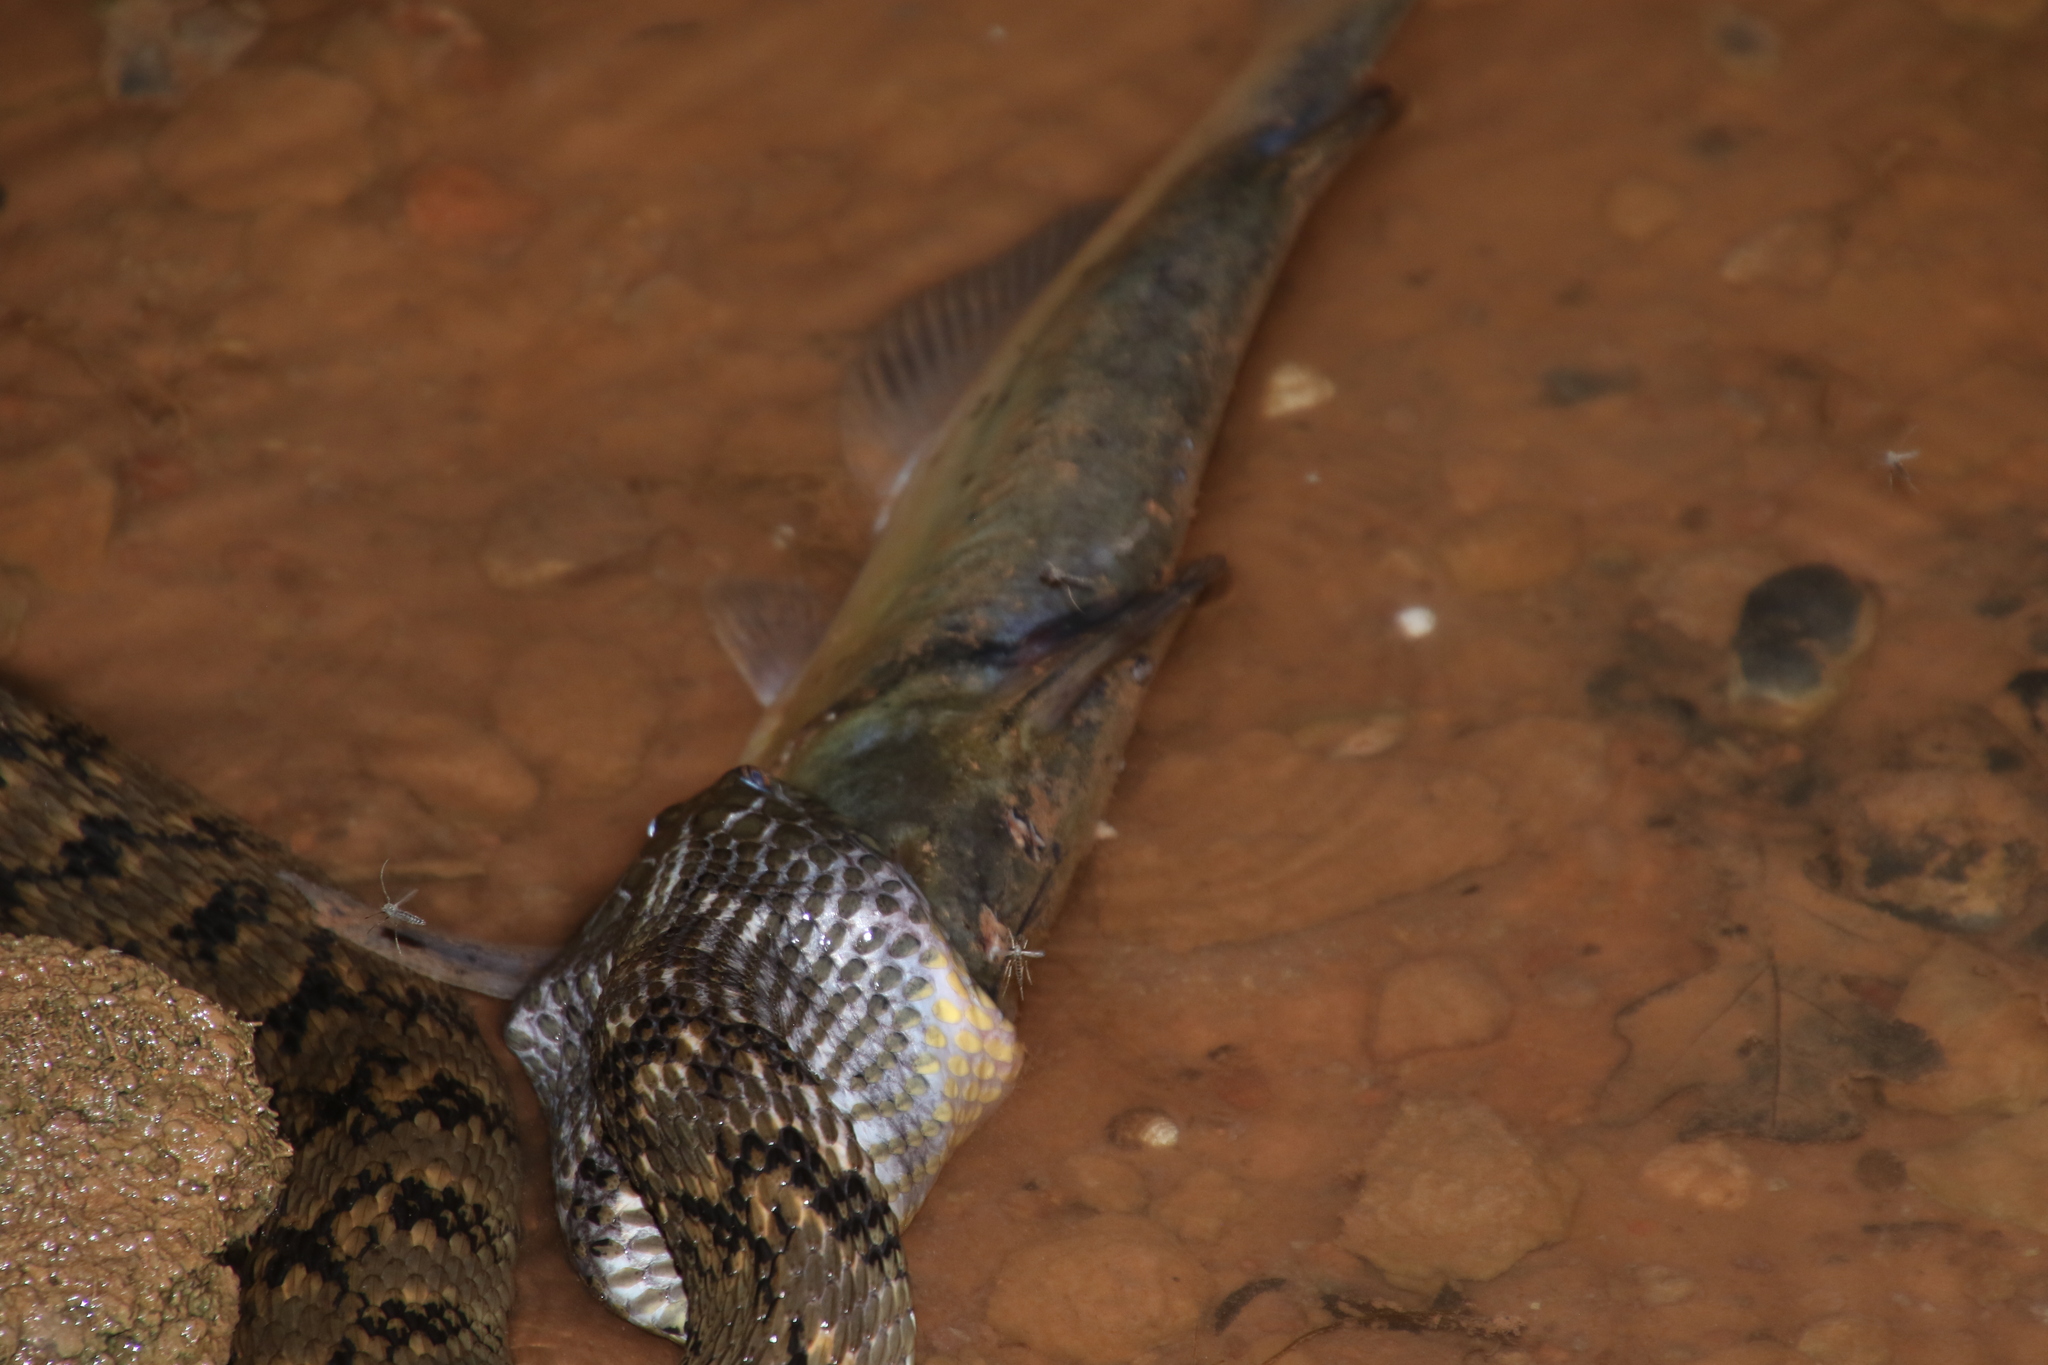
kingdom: Animalia
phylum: Chordata
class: Squamata
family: Colubridae
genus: Nerodia
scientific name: Nerodia rhombifer
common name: Diamondback water snake
